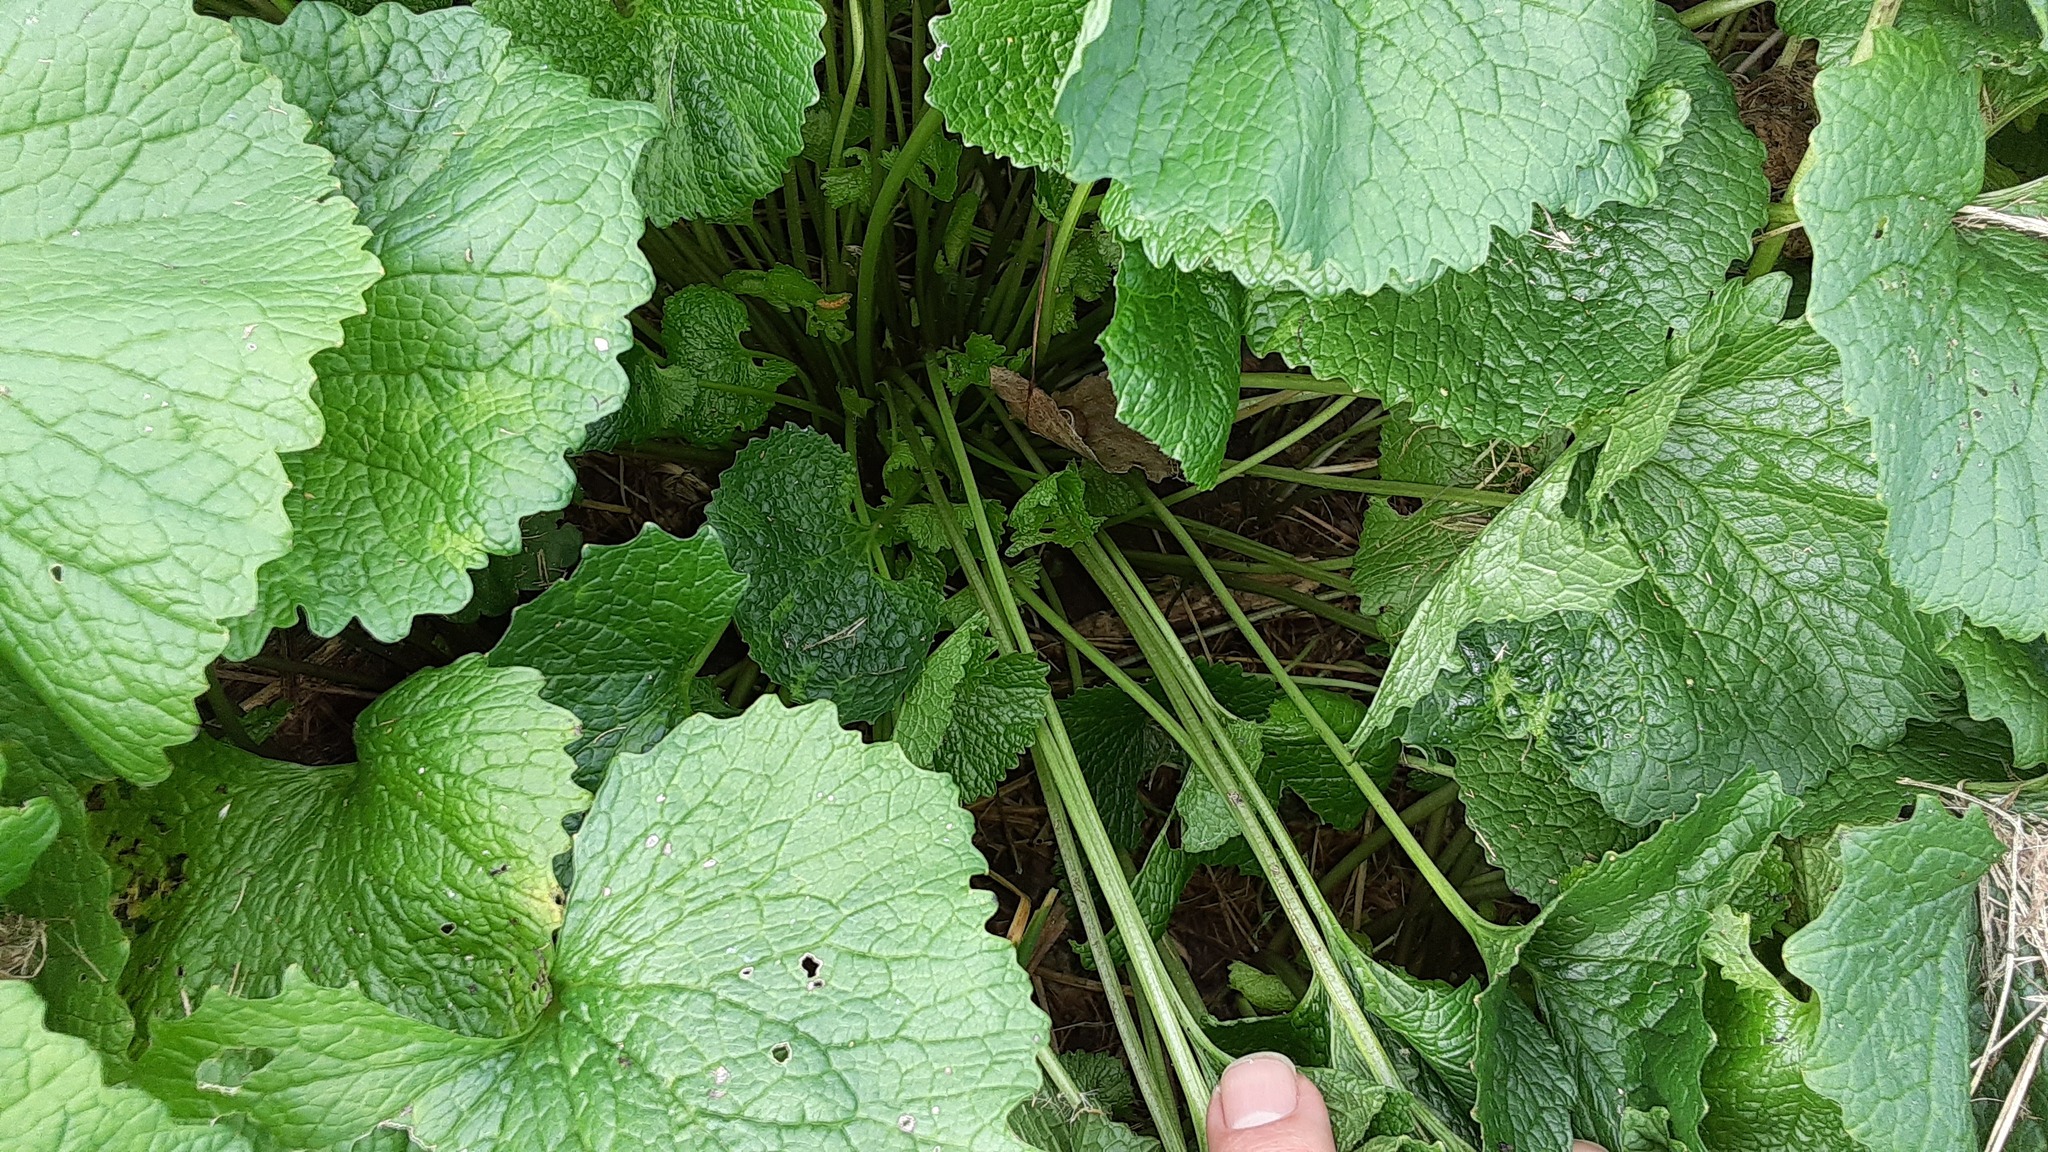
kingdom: Plantae
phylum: Tracheophyta
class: Magnoliopsida
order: Brassicales
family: Brassicaceae
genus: Alliaria
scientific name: Alliaria petiolata
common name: Garlic mustard
